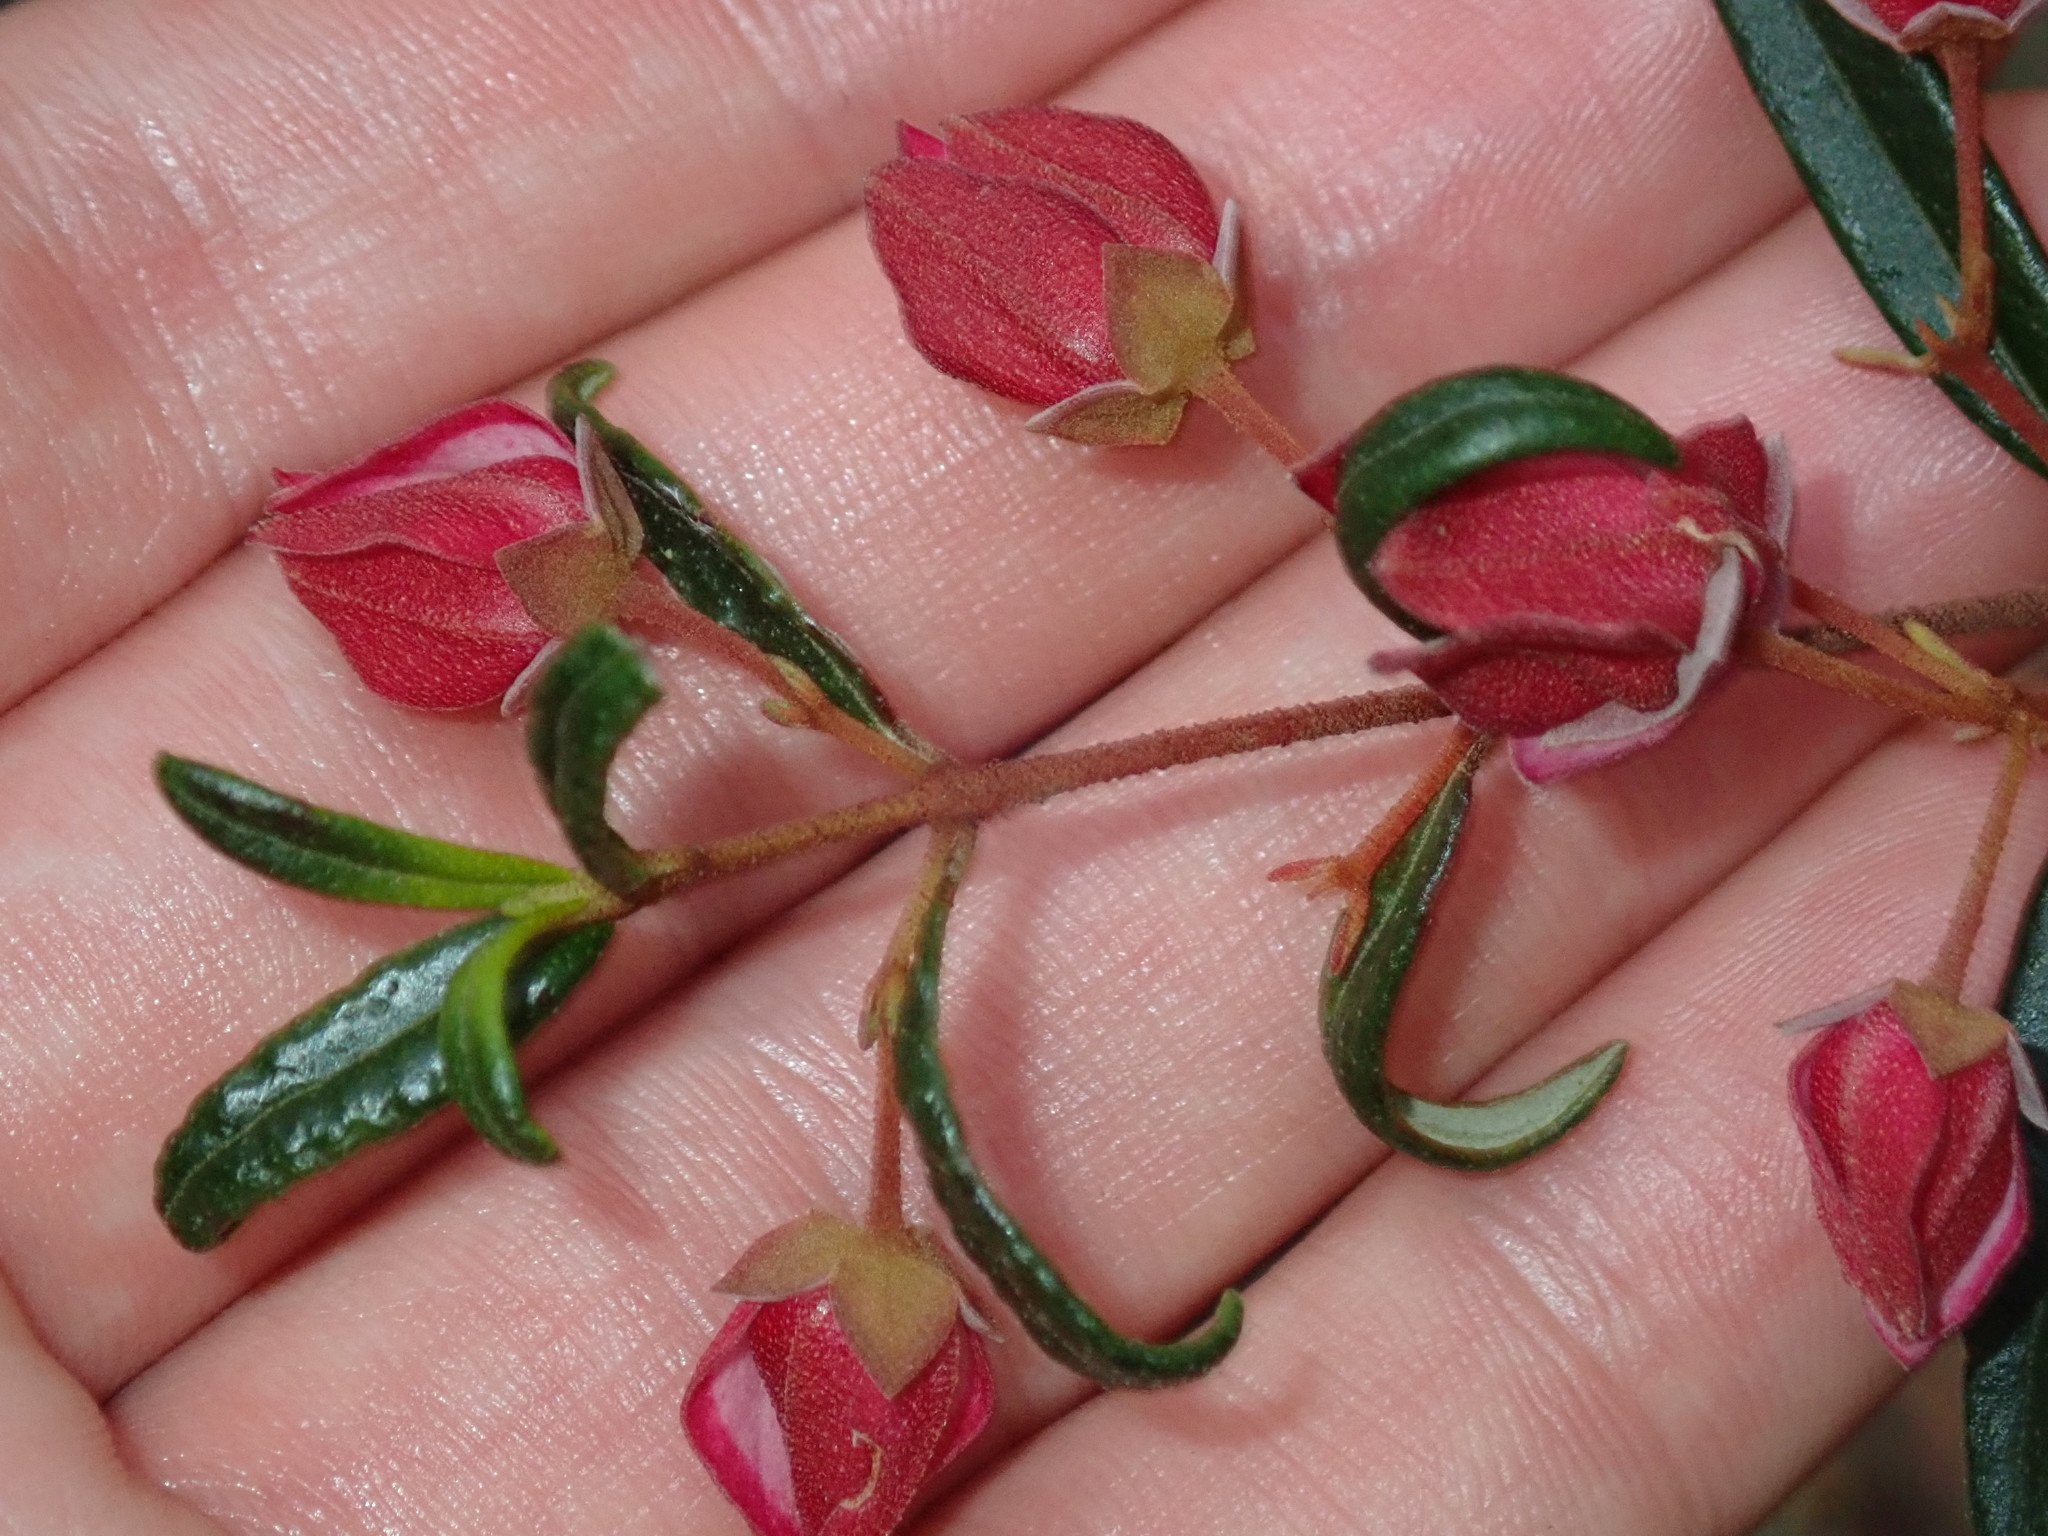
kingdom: Plantae
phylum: Tracheophyta
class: Magnoliopsida
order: Sapindales
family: Rutaceae
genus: Boronia
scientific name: Boronia ledifolia
